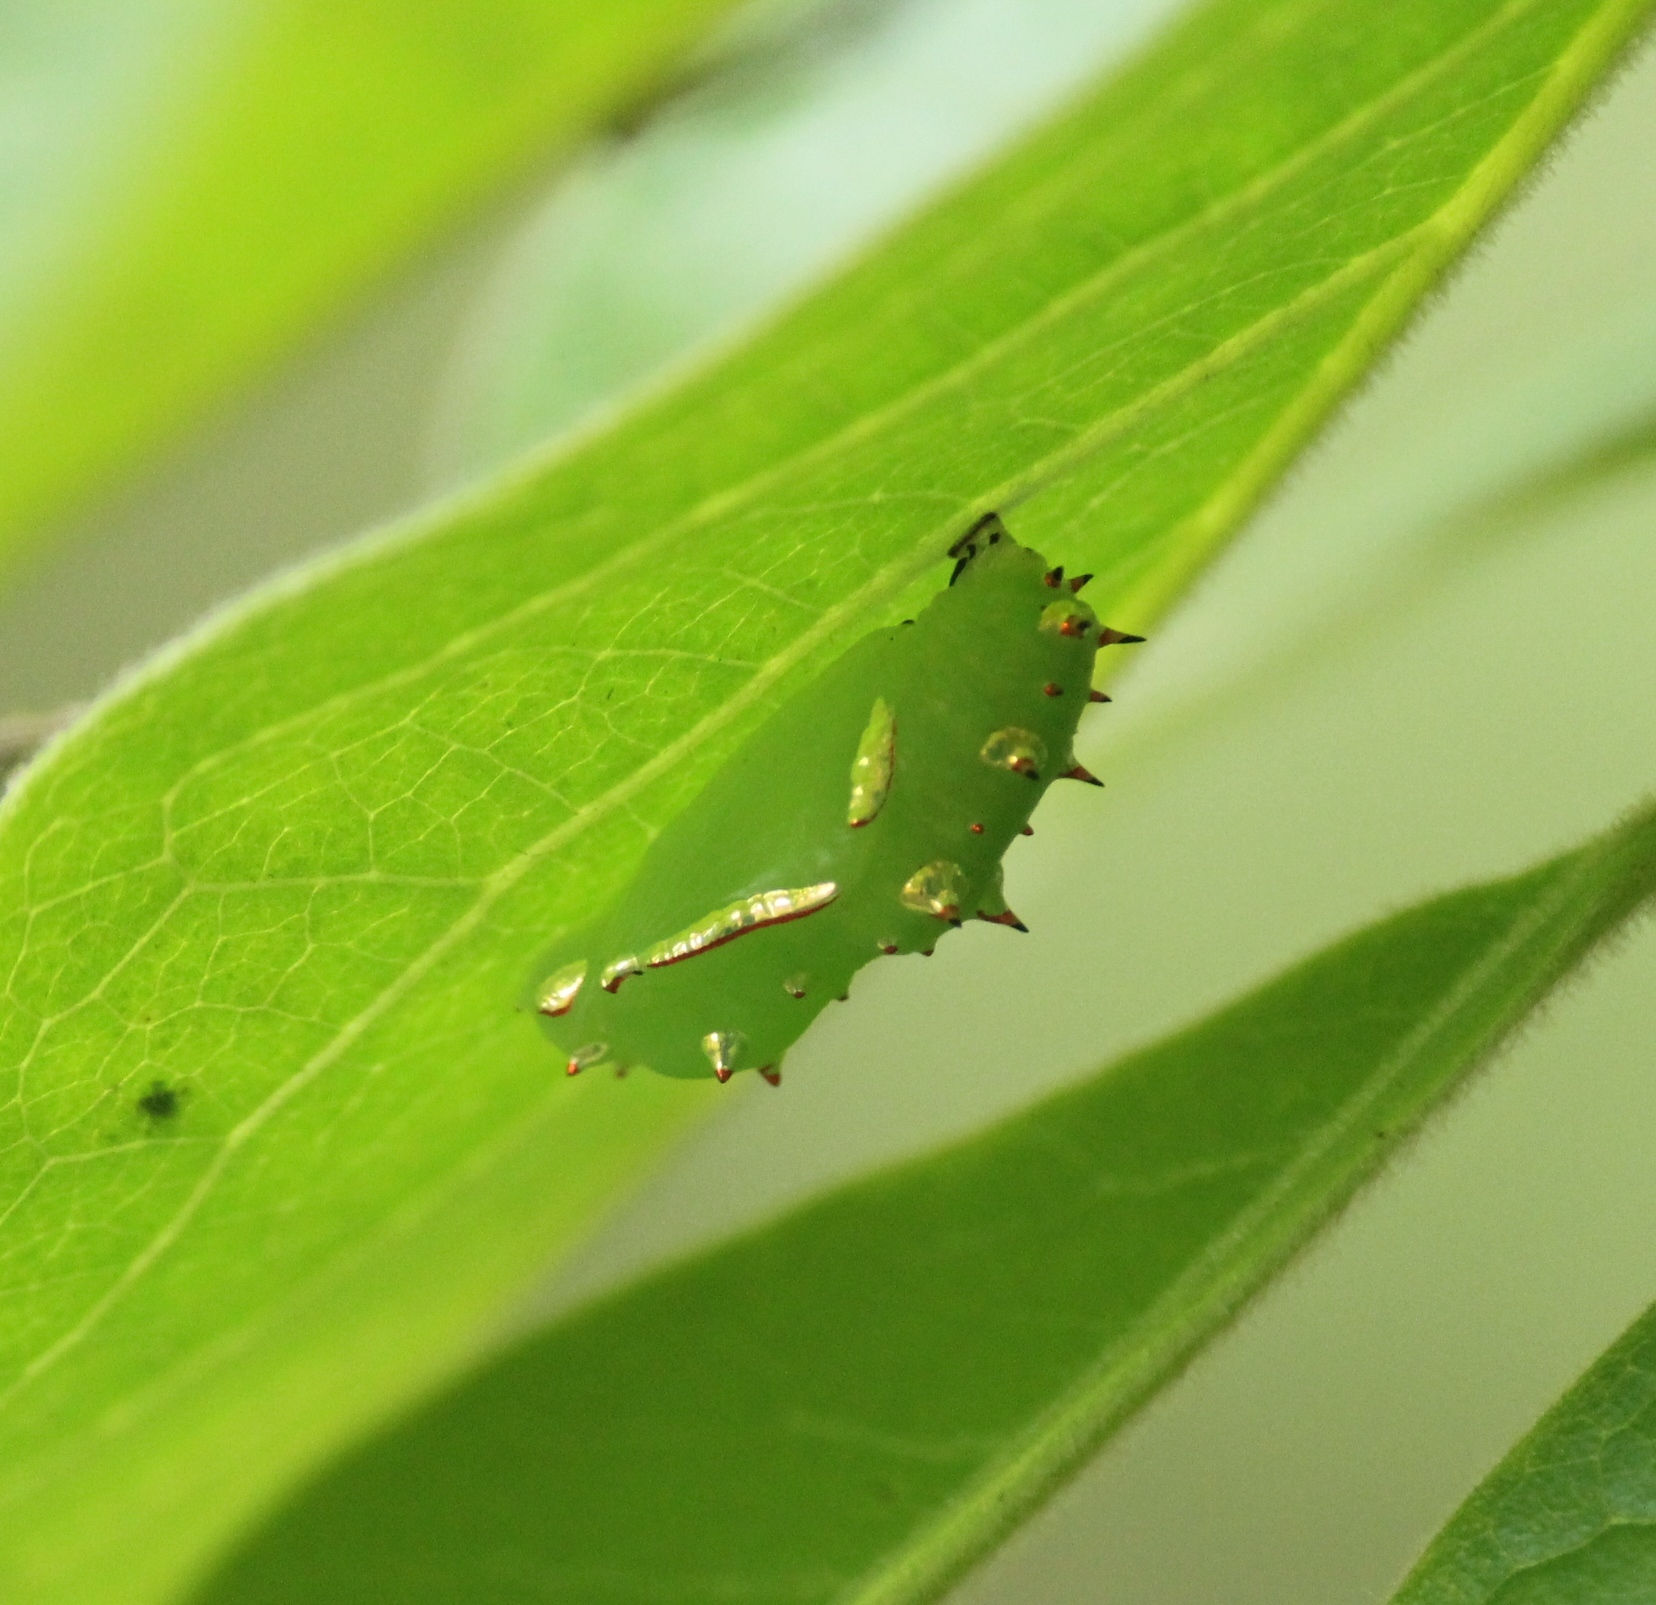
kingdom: Animalia
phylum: Arthropoda
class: Insecta
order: Lepidoptera
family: Nymphalidae
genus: Phalanta
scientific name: Phalanta phalantha
